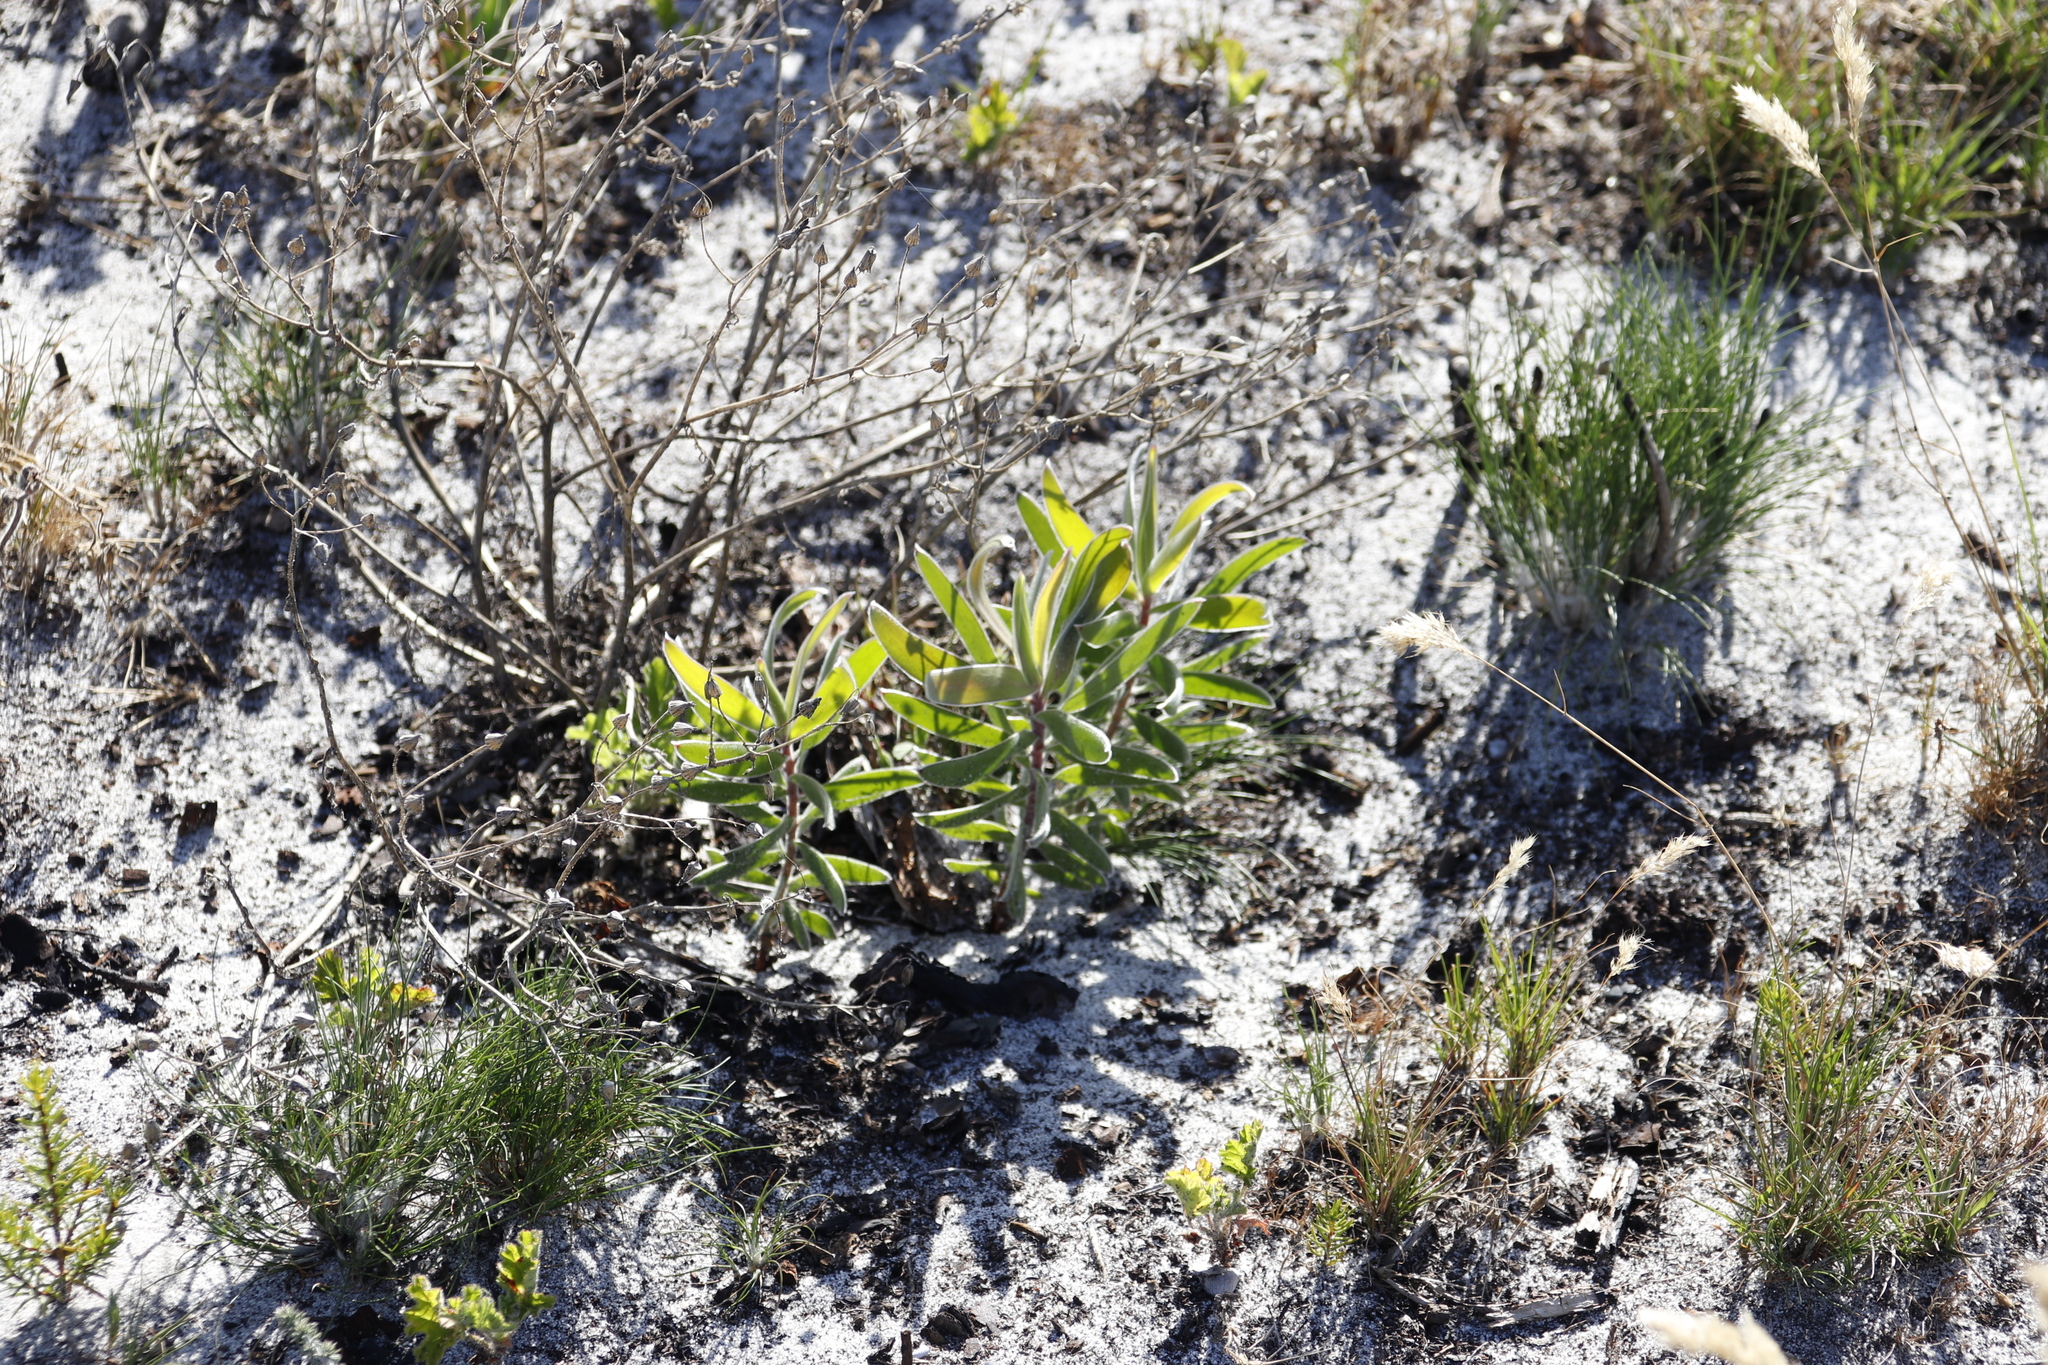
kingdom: Plantae
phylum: Tracheophyta
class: Magnoliopsida
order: Proteales
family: Proteaceae
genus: Leucadendron
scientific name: Leucadendron laureolum
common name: Golden sunshinebush
